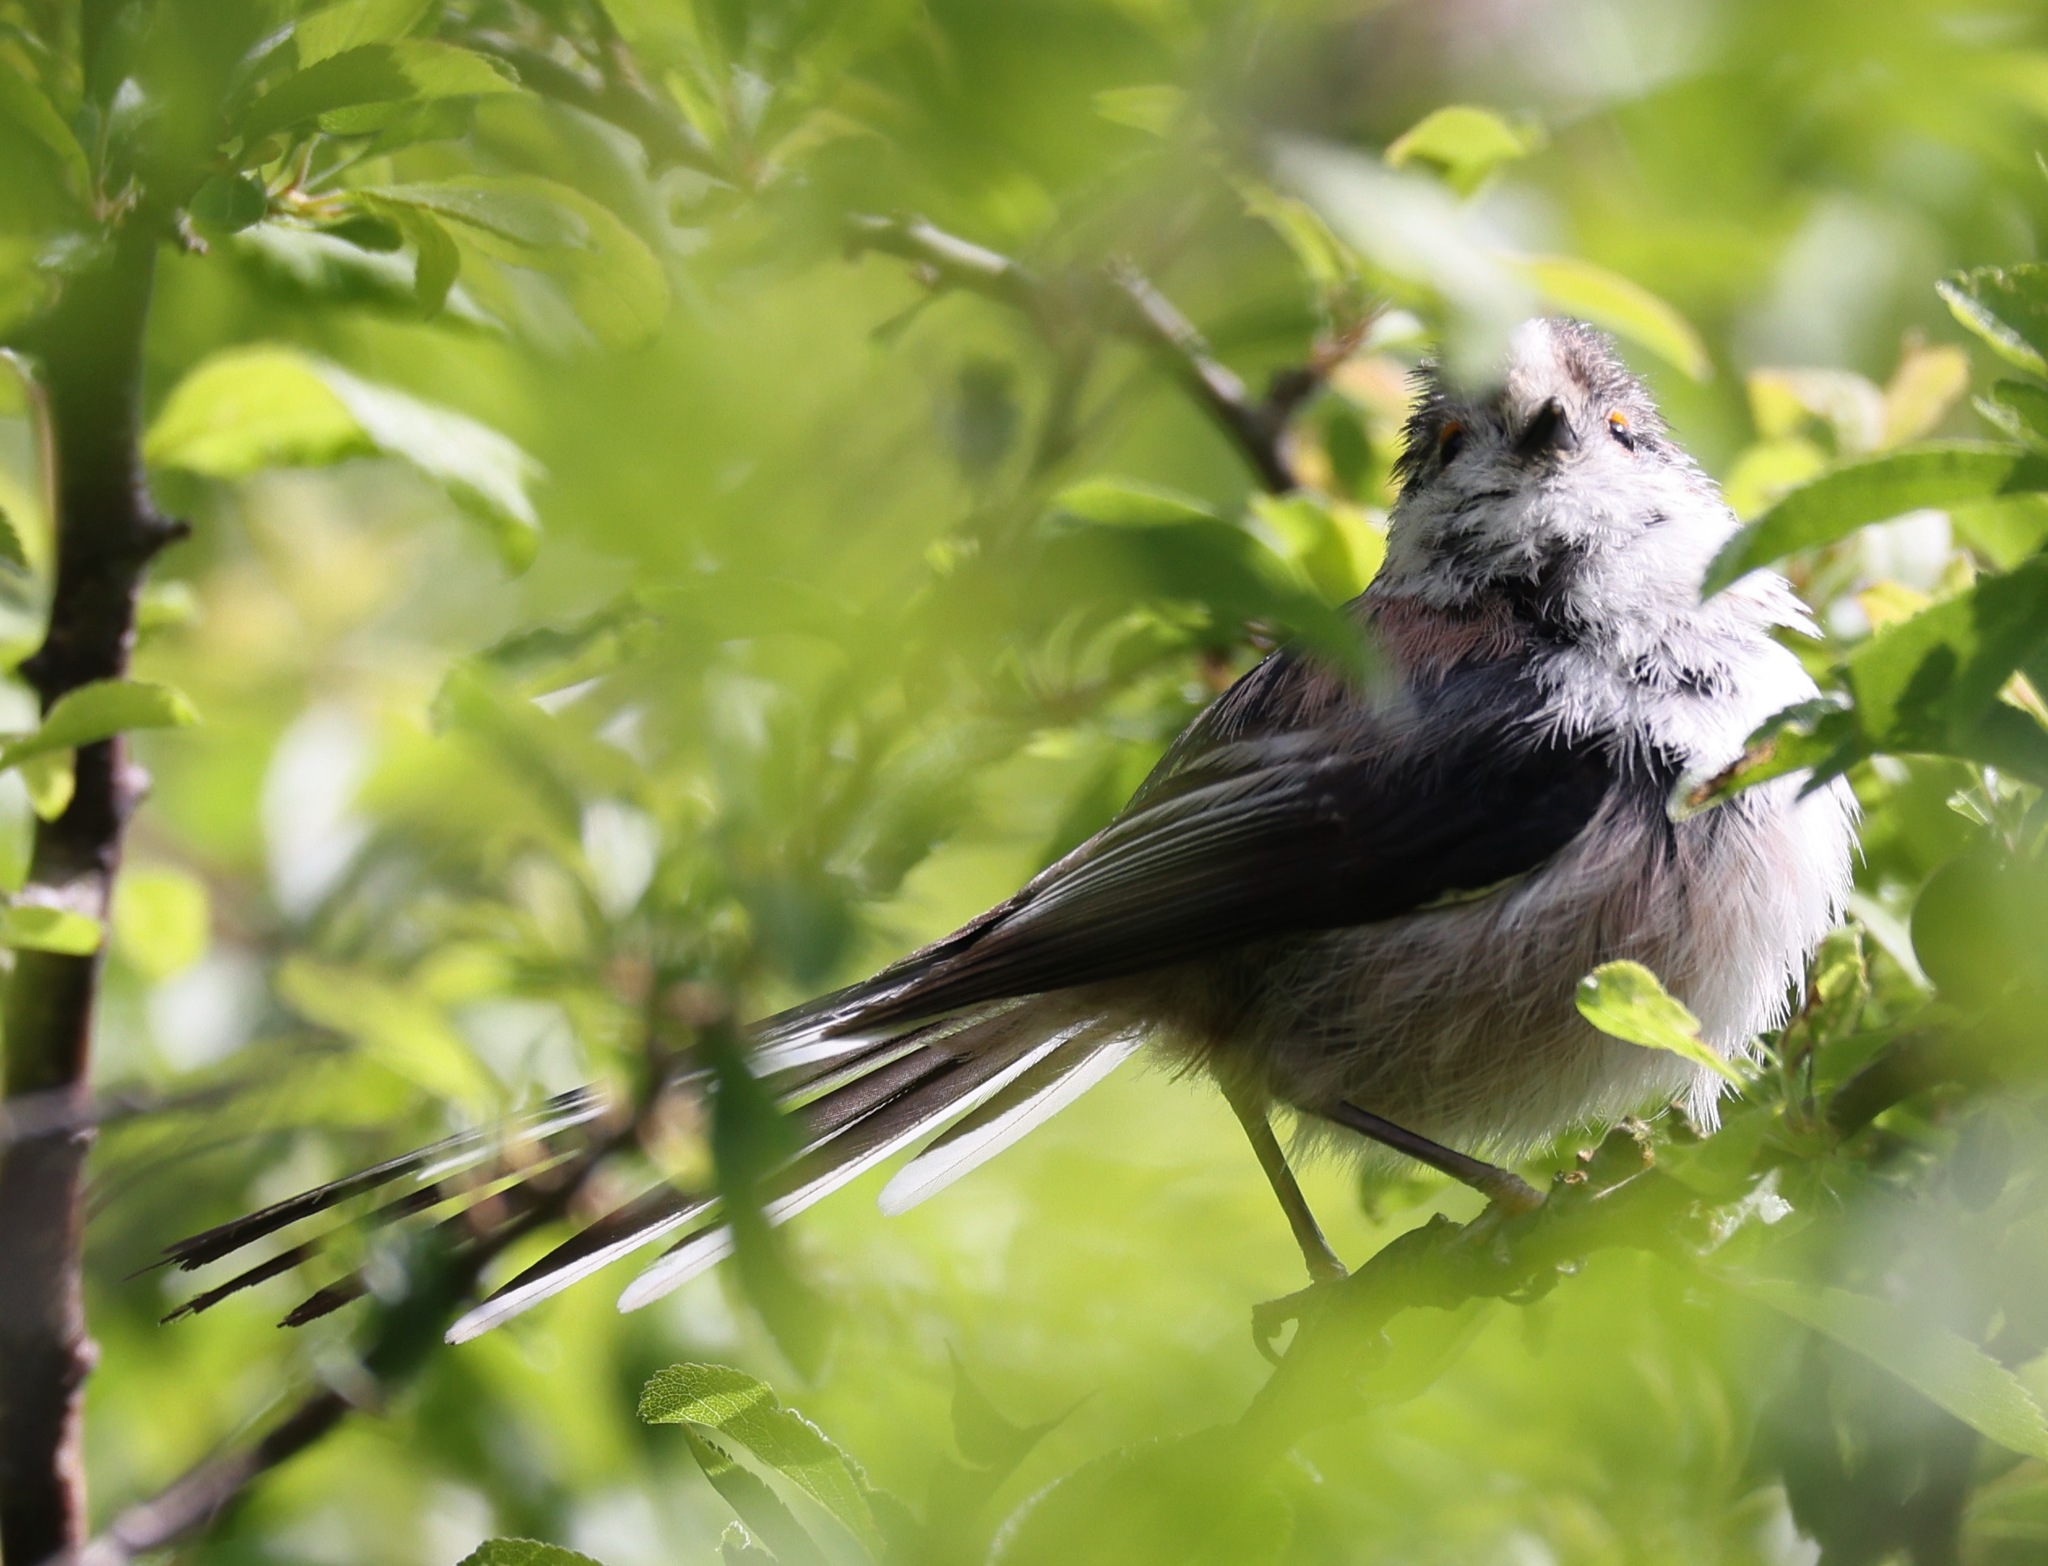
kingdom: Animalia
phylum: Chordata
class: Aves
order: Passeriformes
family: Aegithalidae
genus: Aegithalos
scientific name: Aegithalos caudatus
